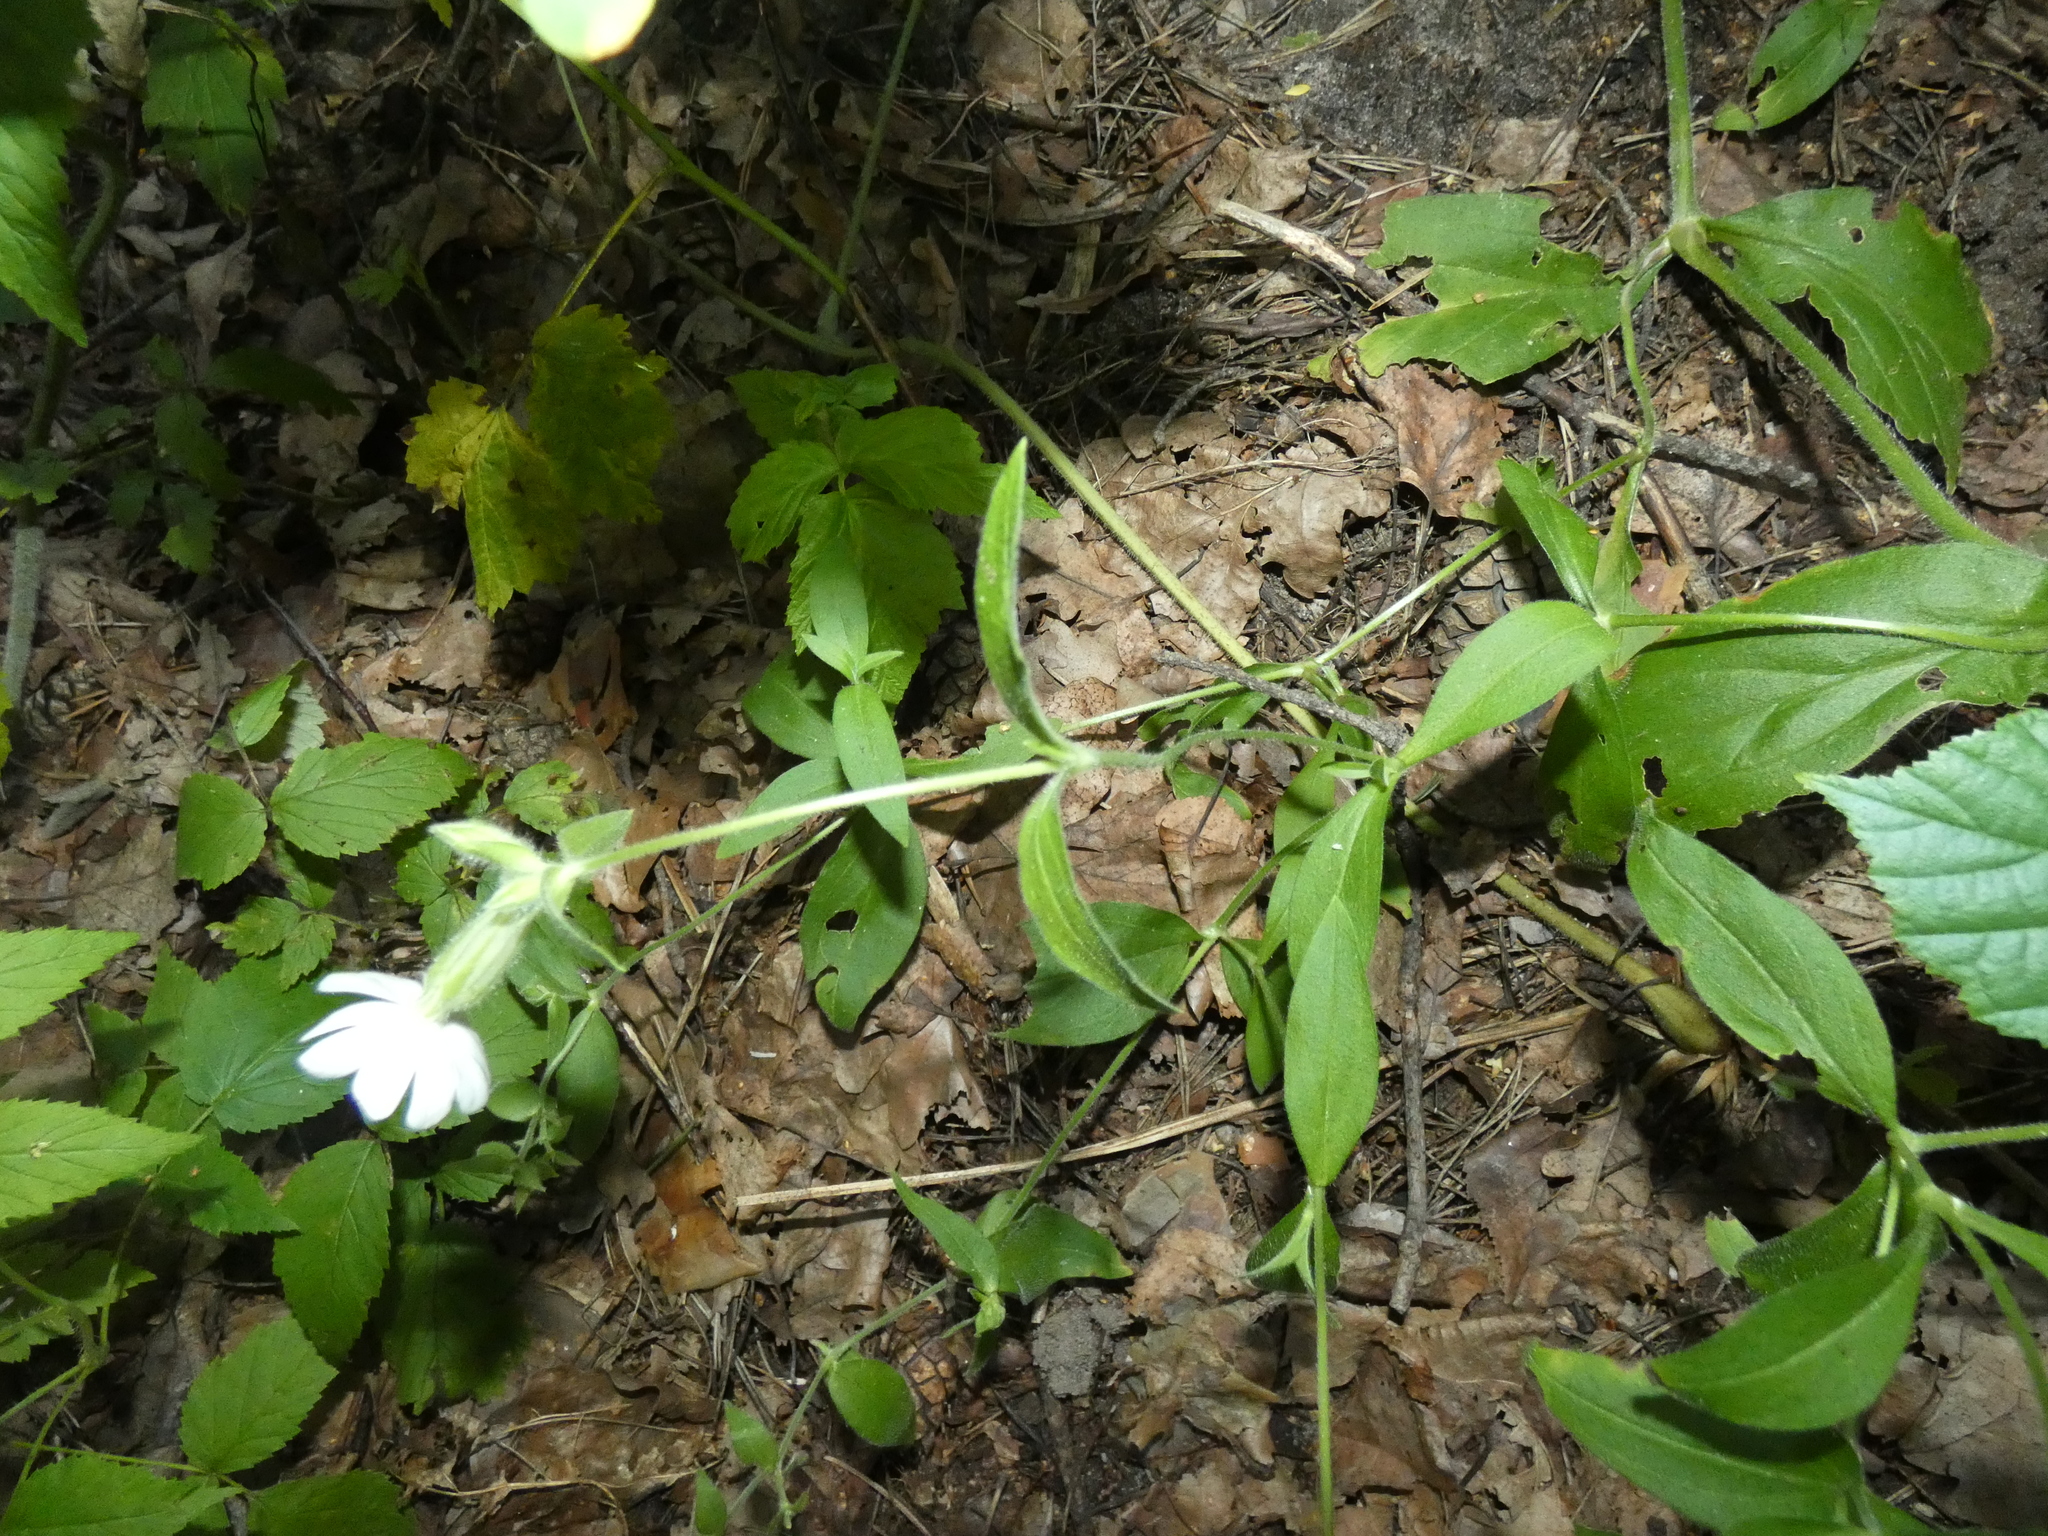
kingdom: Plantae
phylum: Tracheophyta
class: Magnoliopsida
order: Caryophyllales
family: Caryophyllaceae
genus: Silene
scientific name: Silene latifolia
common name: White campion
